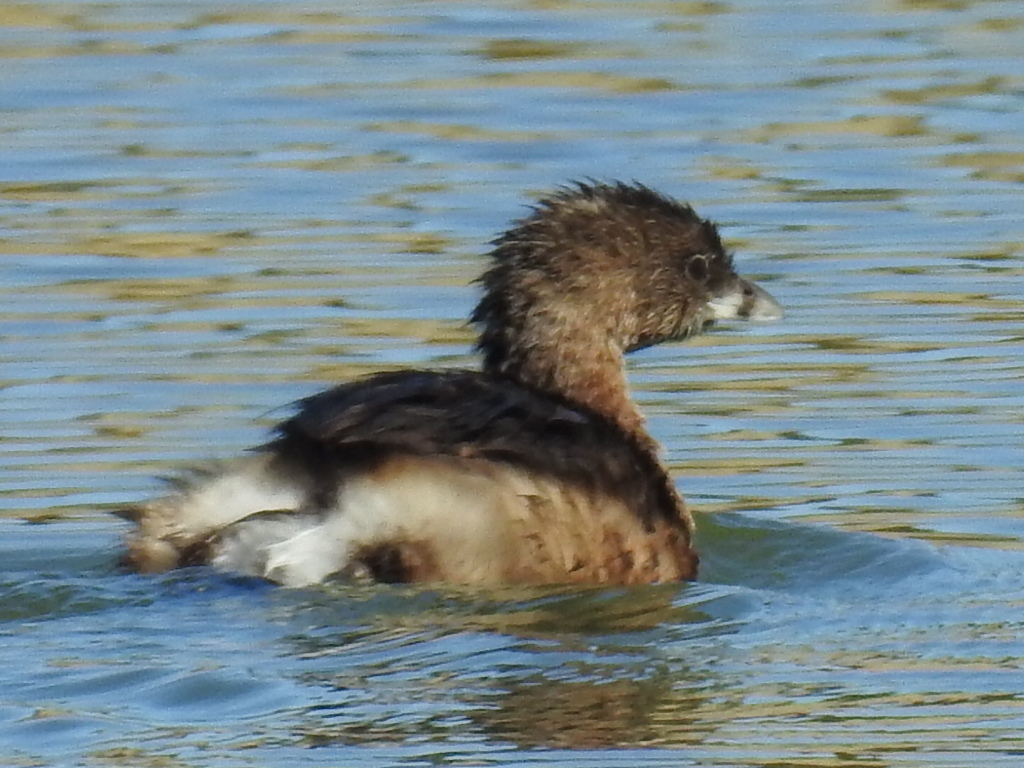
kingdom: Animalia
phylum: Chordata
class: Aves
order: Podicipediformes
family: Podicipedidae
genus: Podilymbus
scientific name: Podilymbus podiceps
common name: Pied-billed grebe
